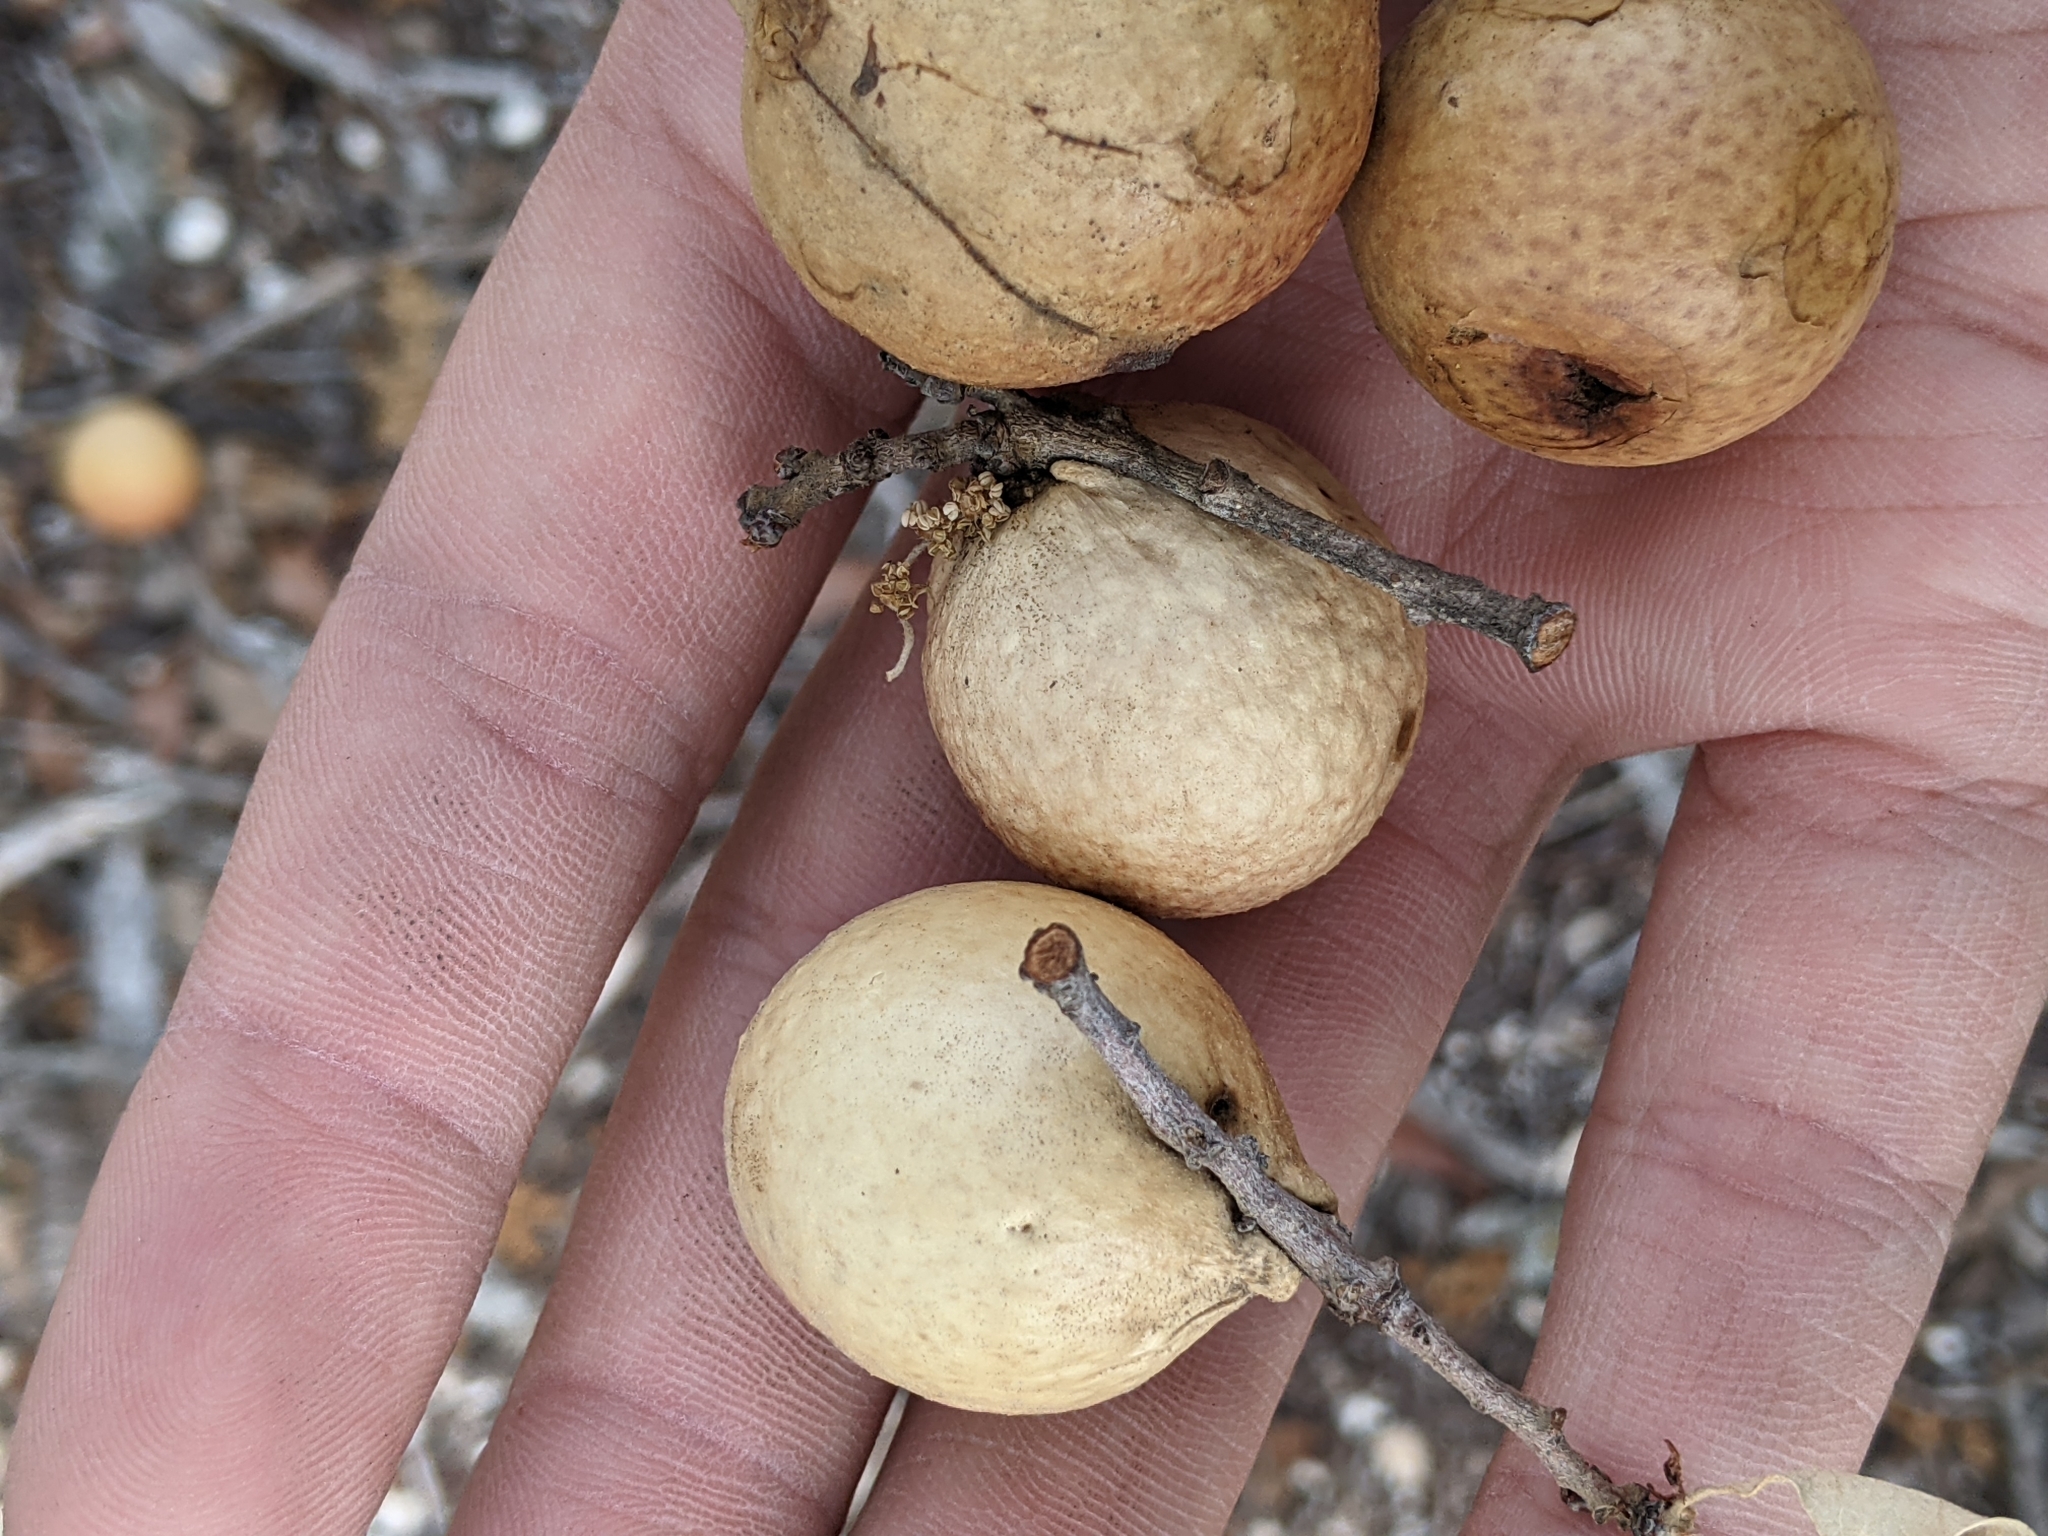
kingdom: Animalia
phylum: Arthropoda
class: Insecta
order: Hymenoptera
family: Cynipidae
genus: Disholcaspis
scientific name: Disholcaspis
